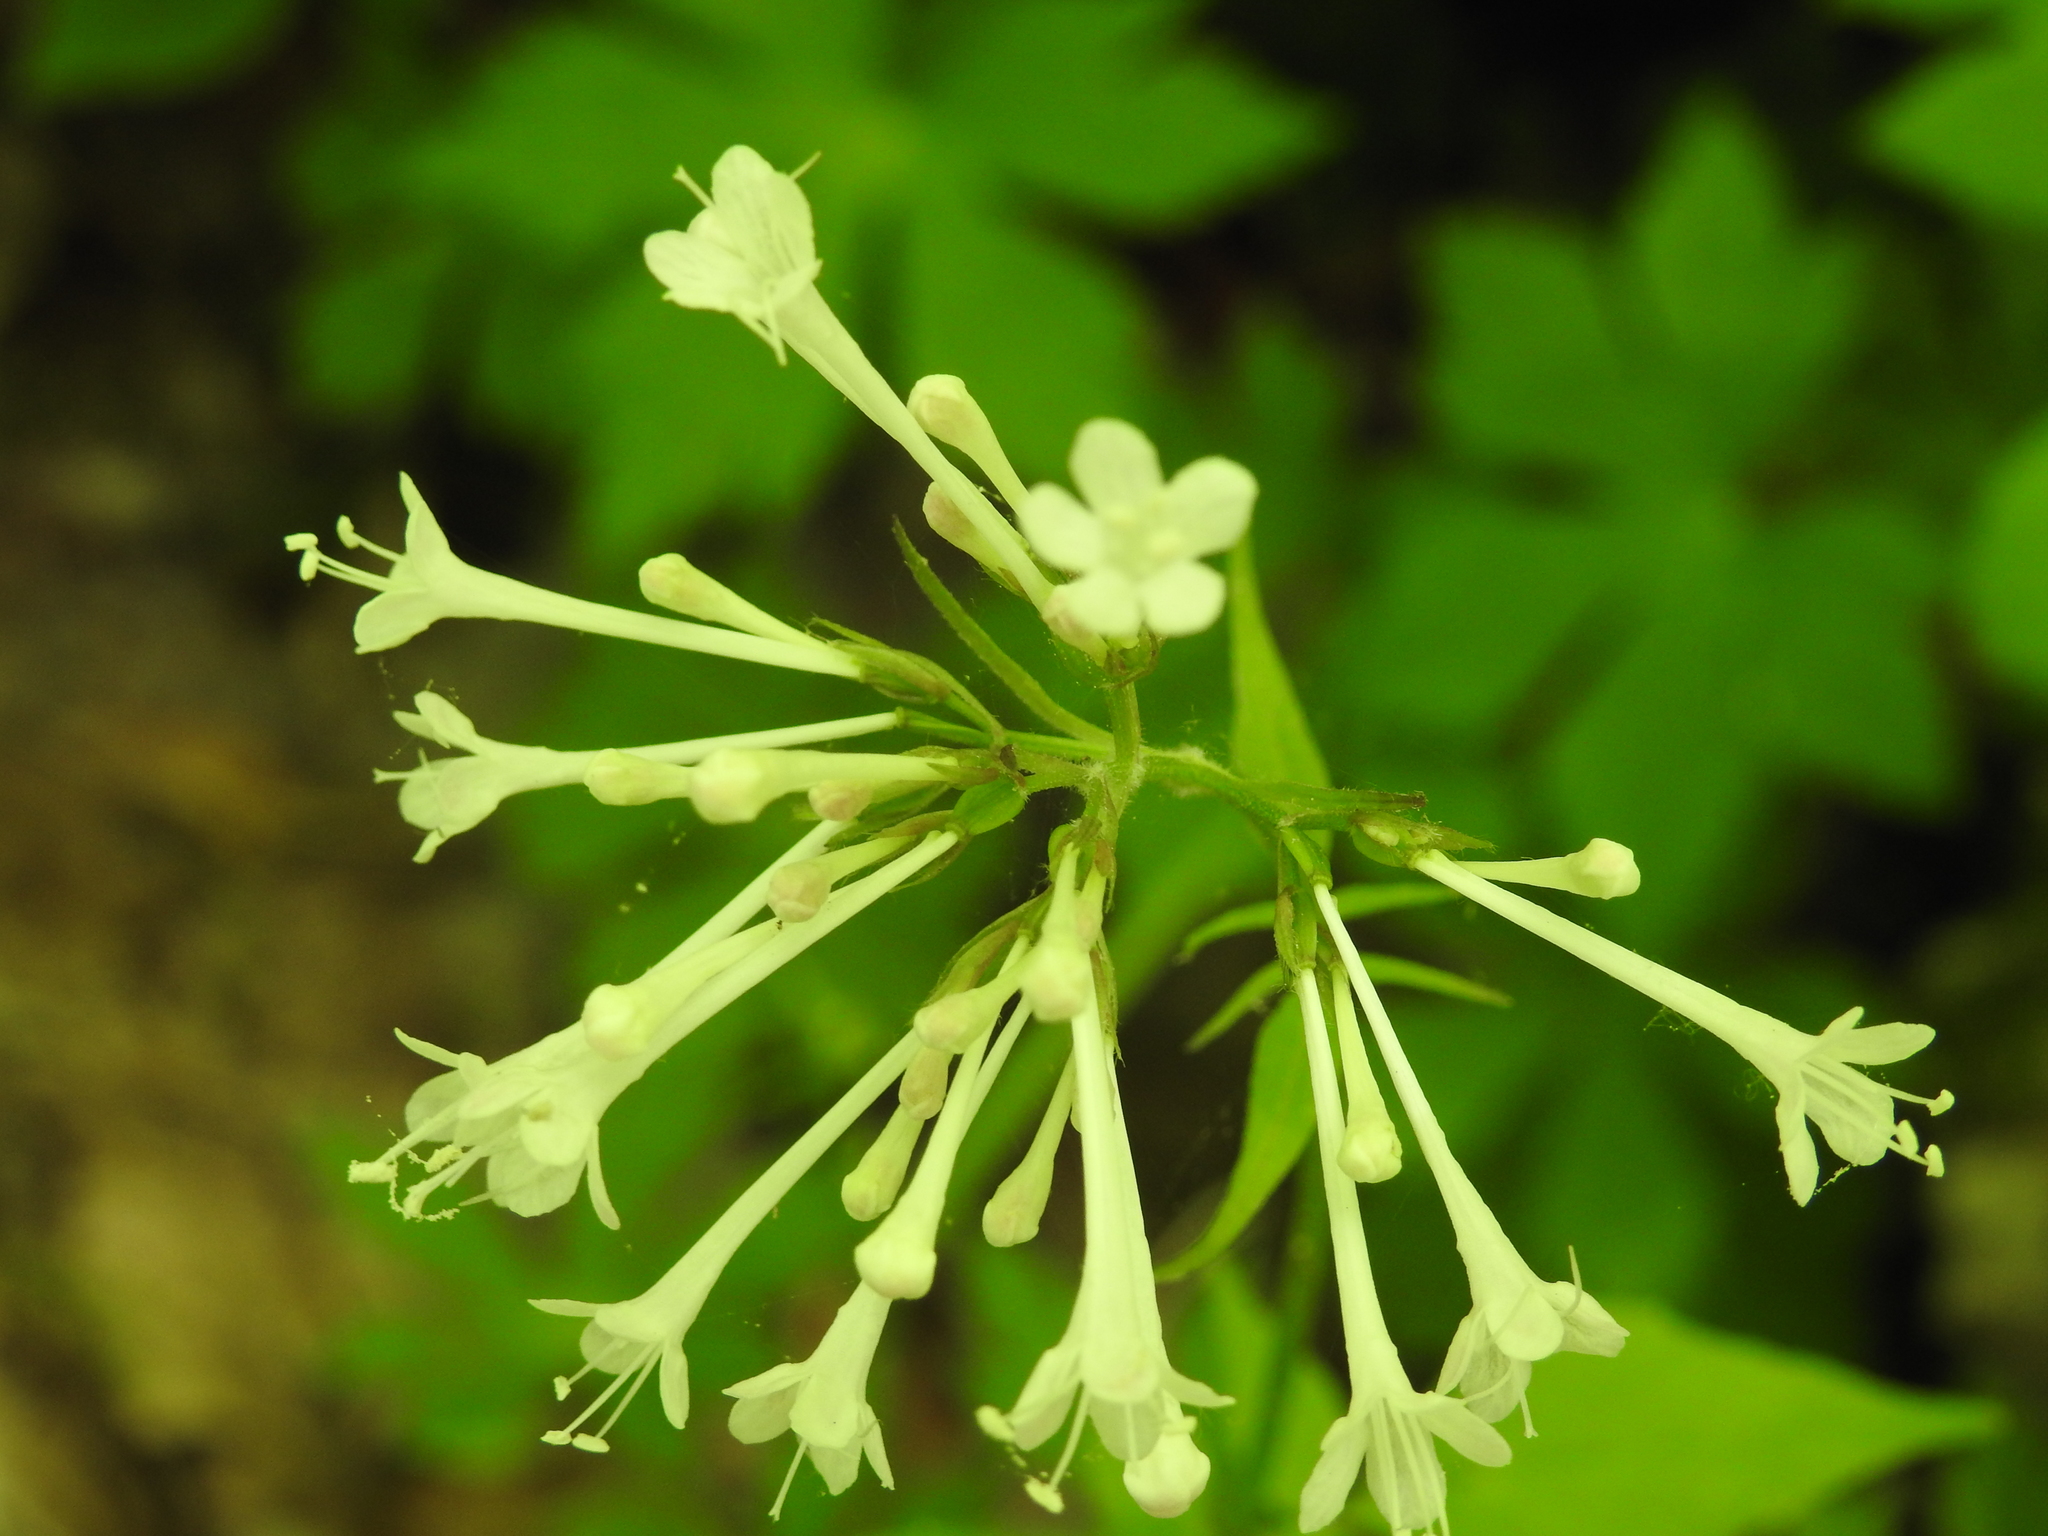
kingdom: Plantae
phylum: Tracheophyta
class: Magnoliopsida
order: Dipsacales
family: Caprifoliaceae
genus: Valeriana
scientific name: Valeriana pauciflora
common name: Long-tube valeriana
